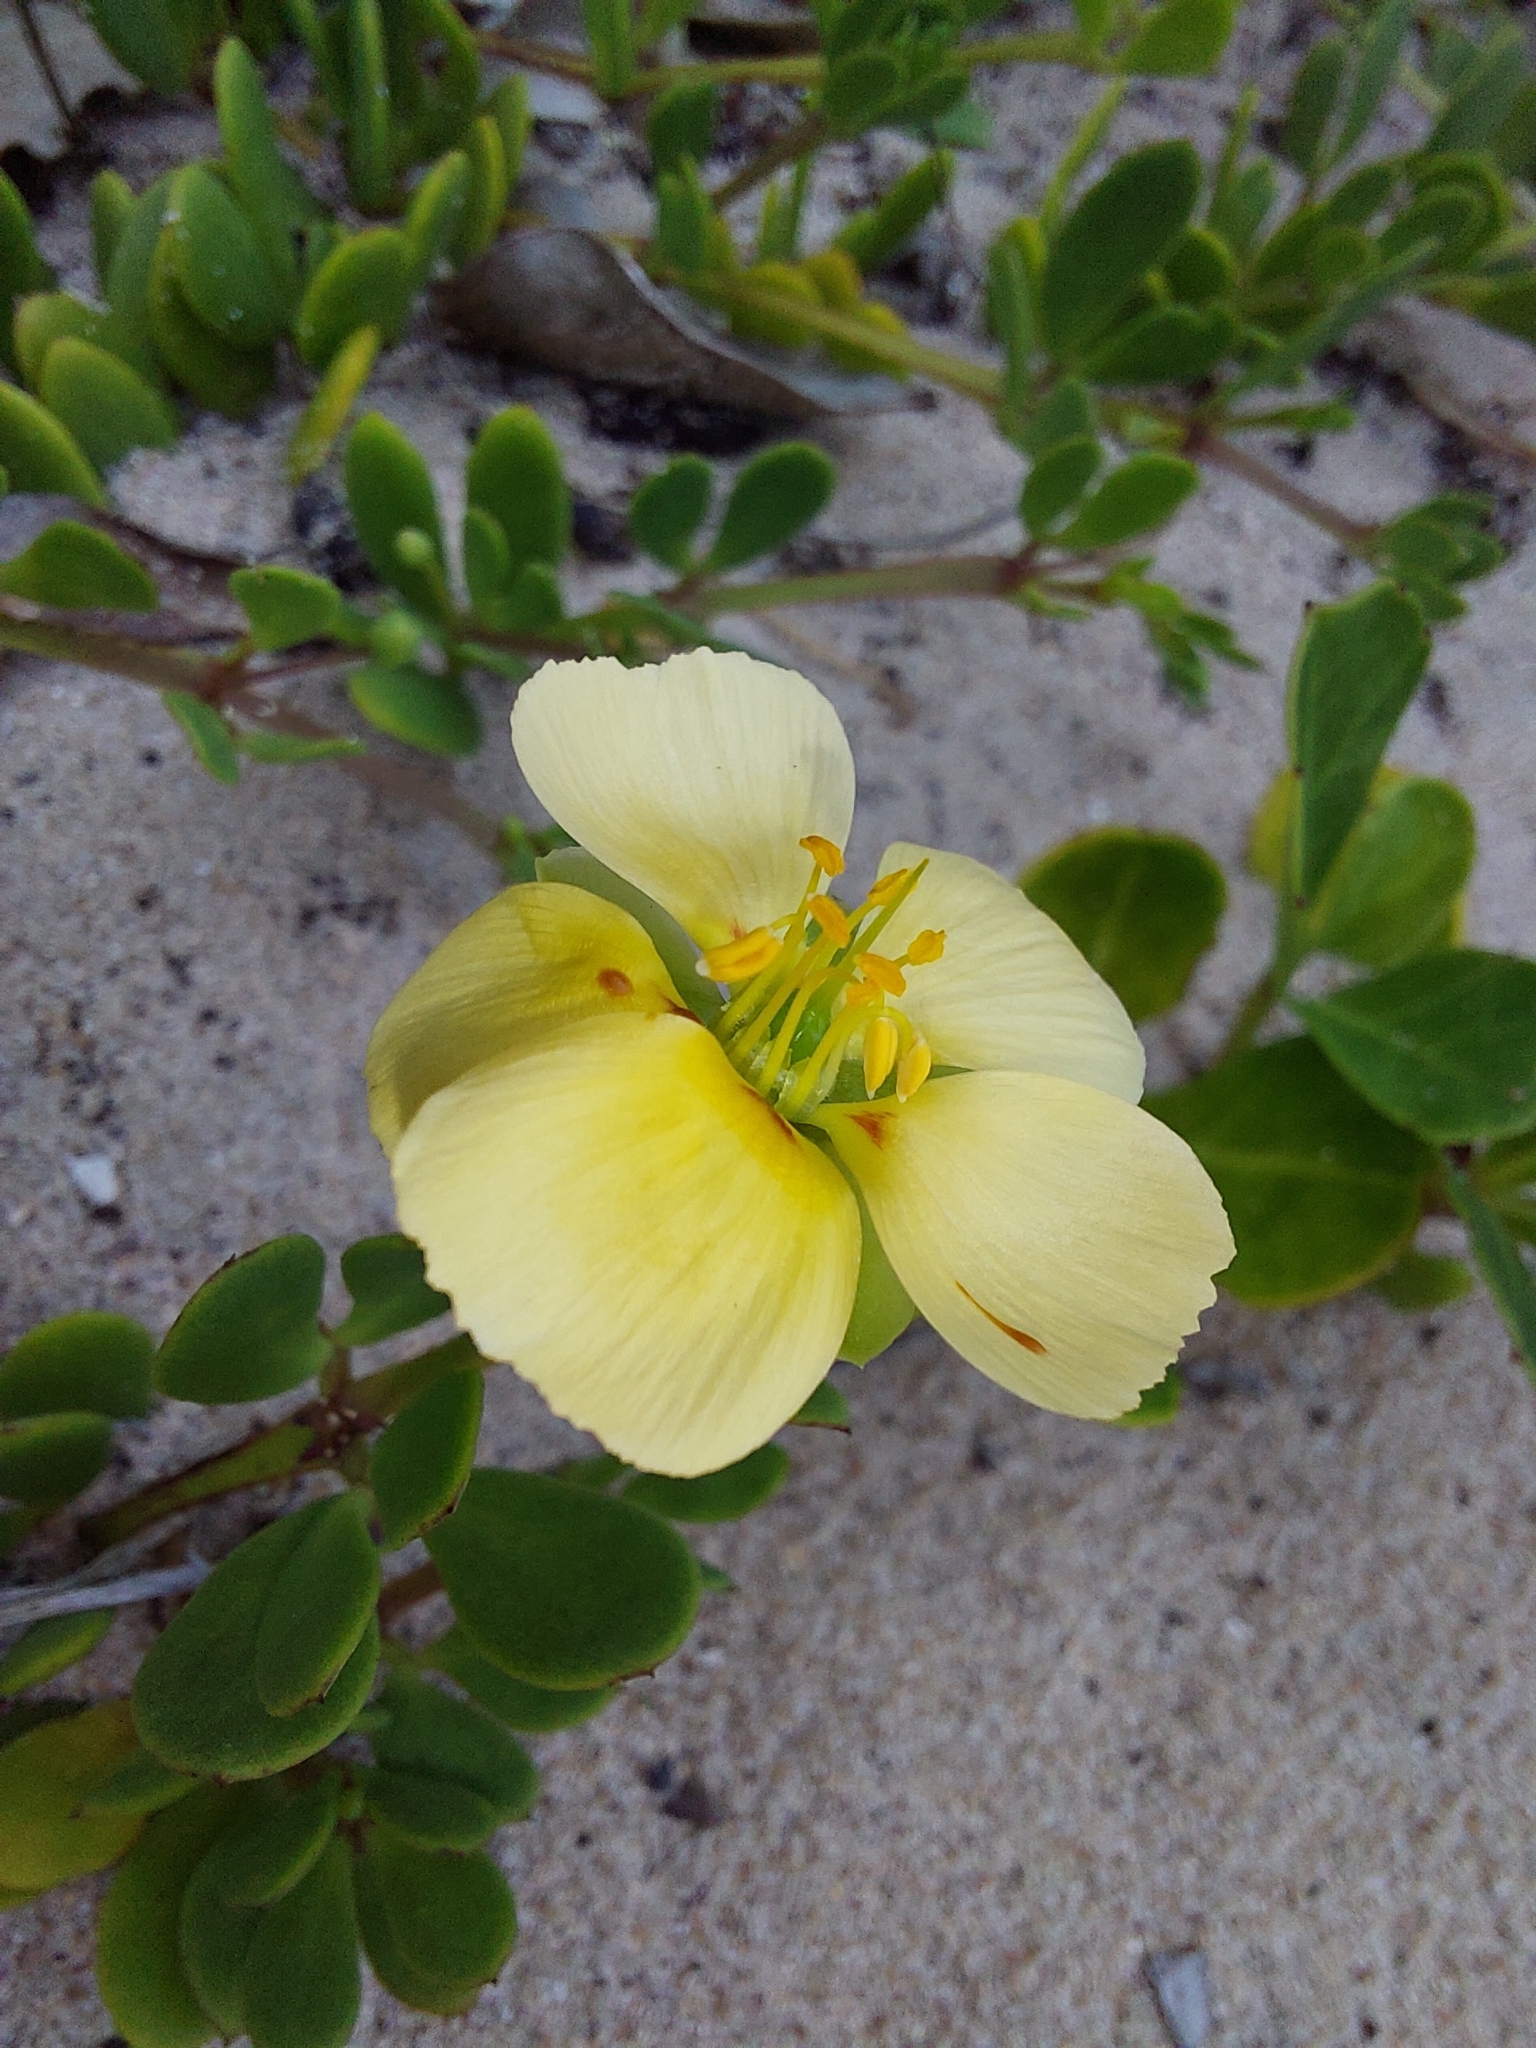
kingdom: Plantae
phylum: Tracheophyta
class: Magnoliopsida
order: Zygophyllales
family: Zygophyllaceae
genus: Roepera
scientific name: Roepera maritima
